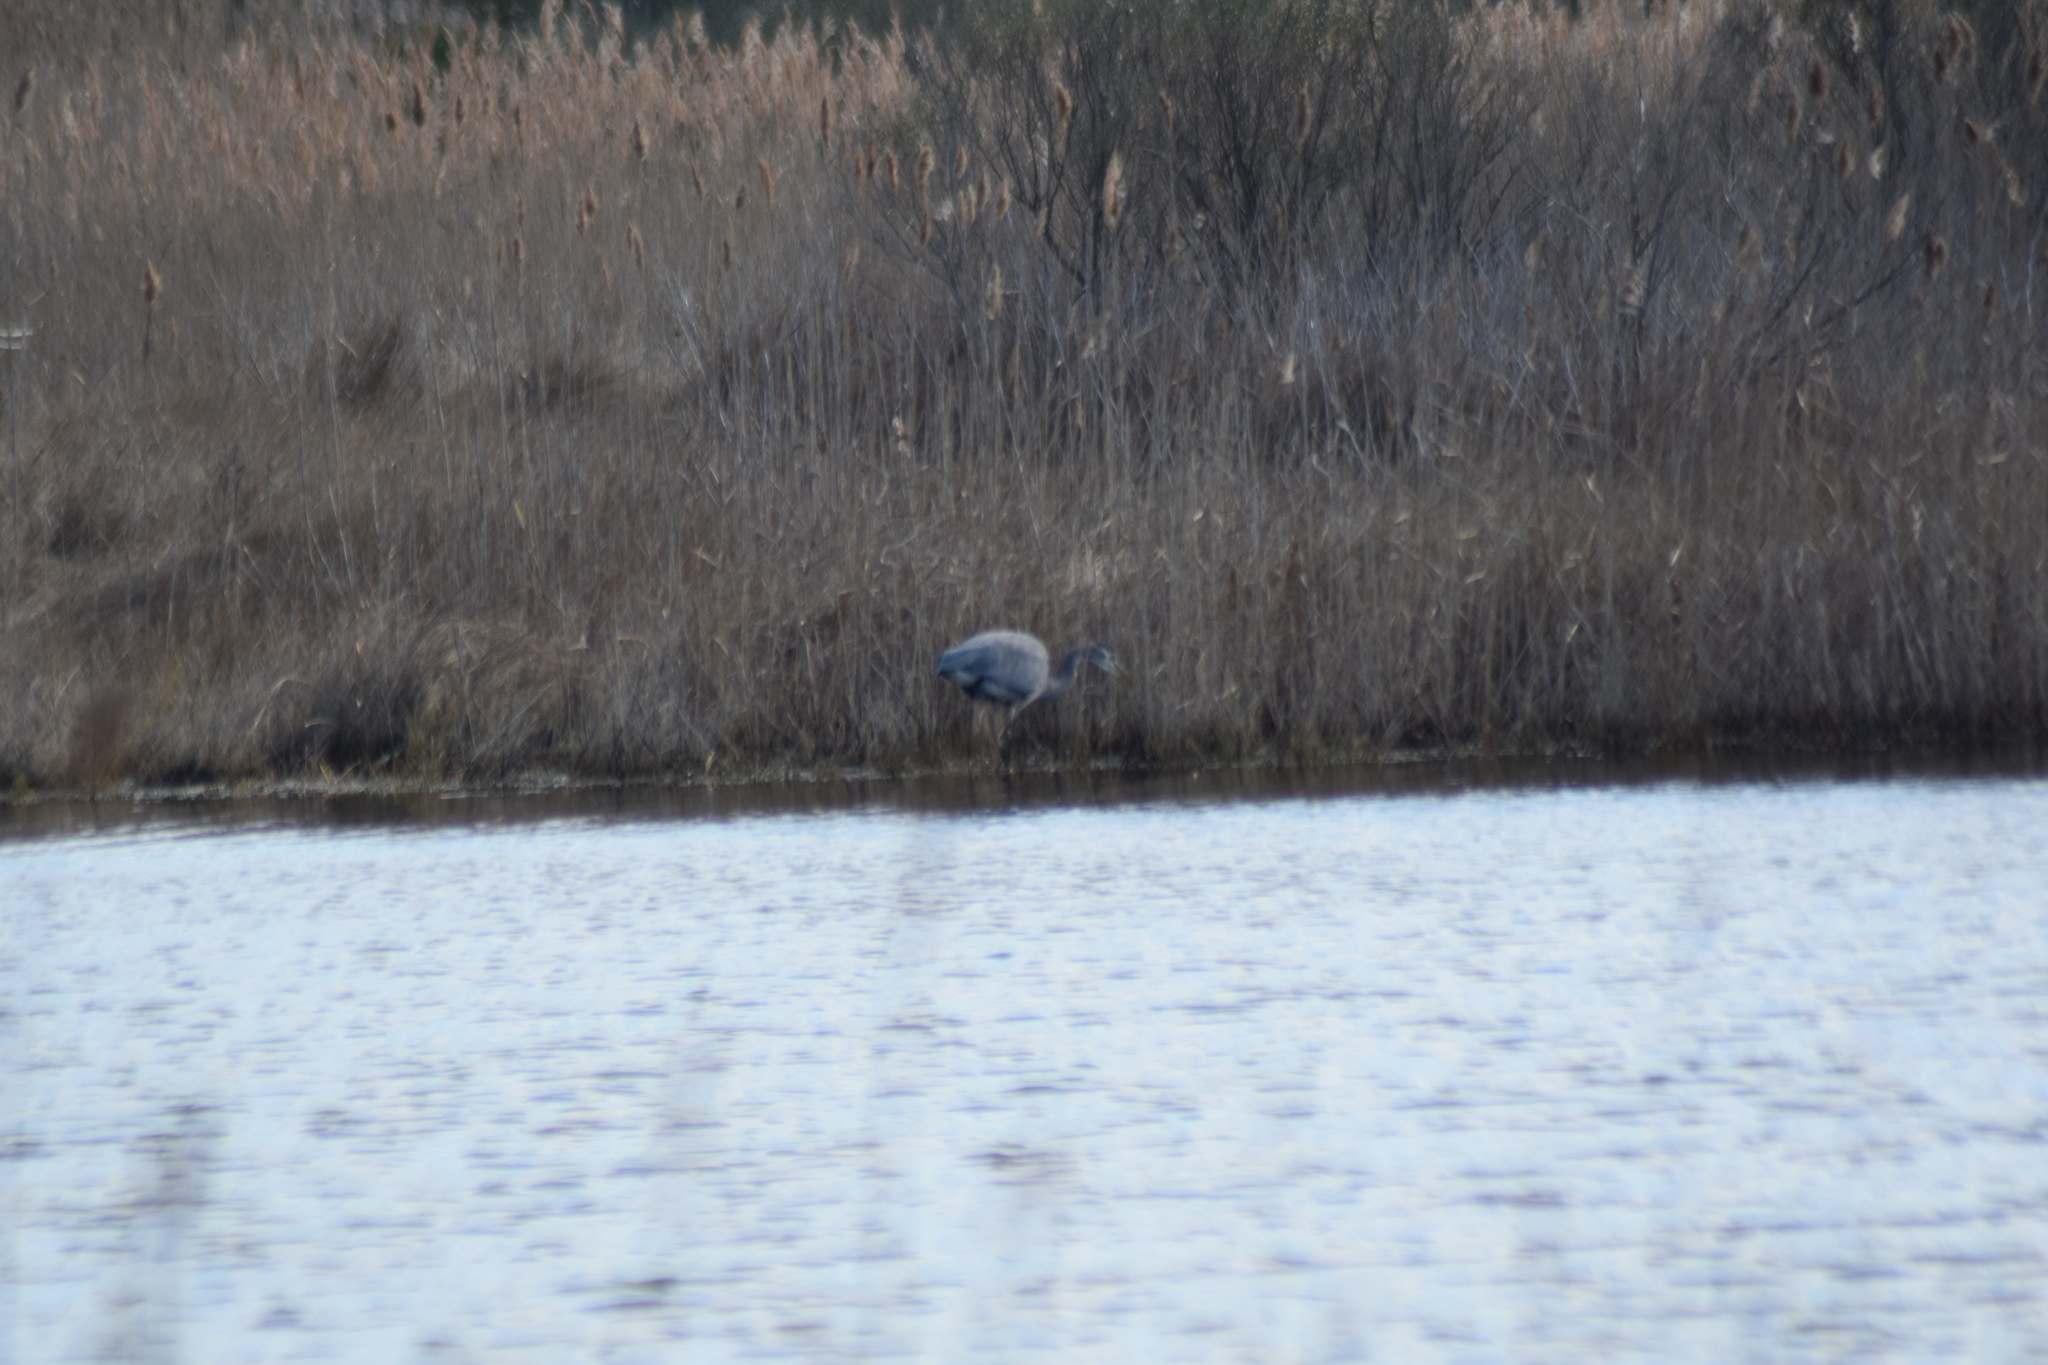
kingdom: Animalia
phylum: Chordata
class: Aves
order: Pelecaniformes
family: Ardeidae
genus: Ardea
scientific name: Ardea herodias
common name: Great blue heron
